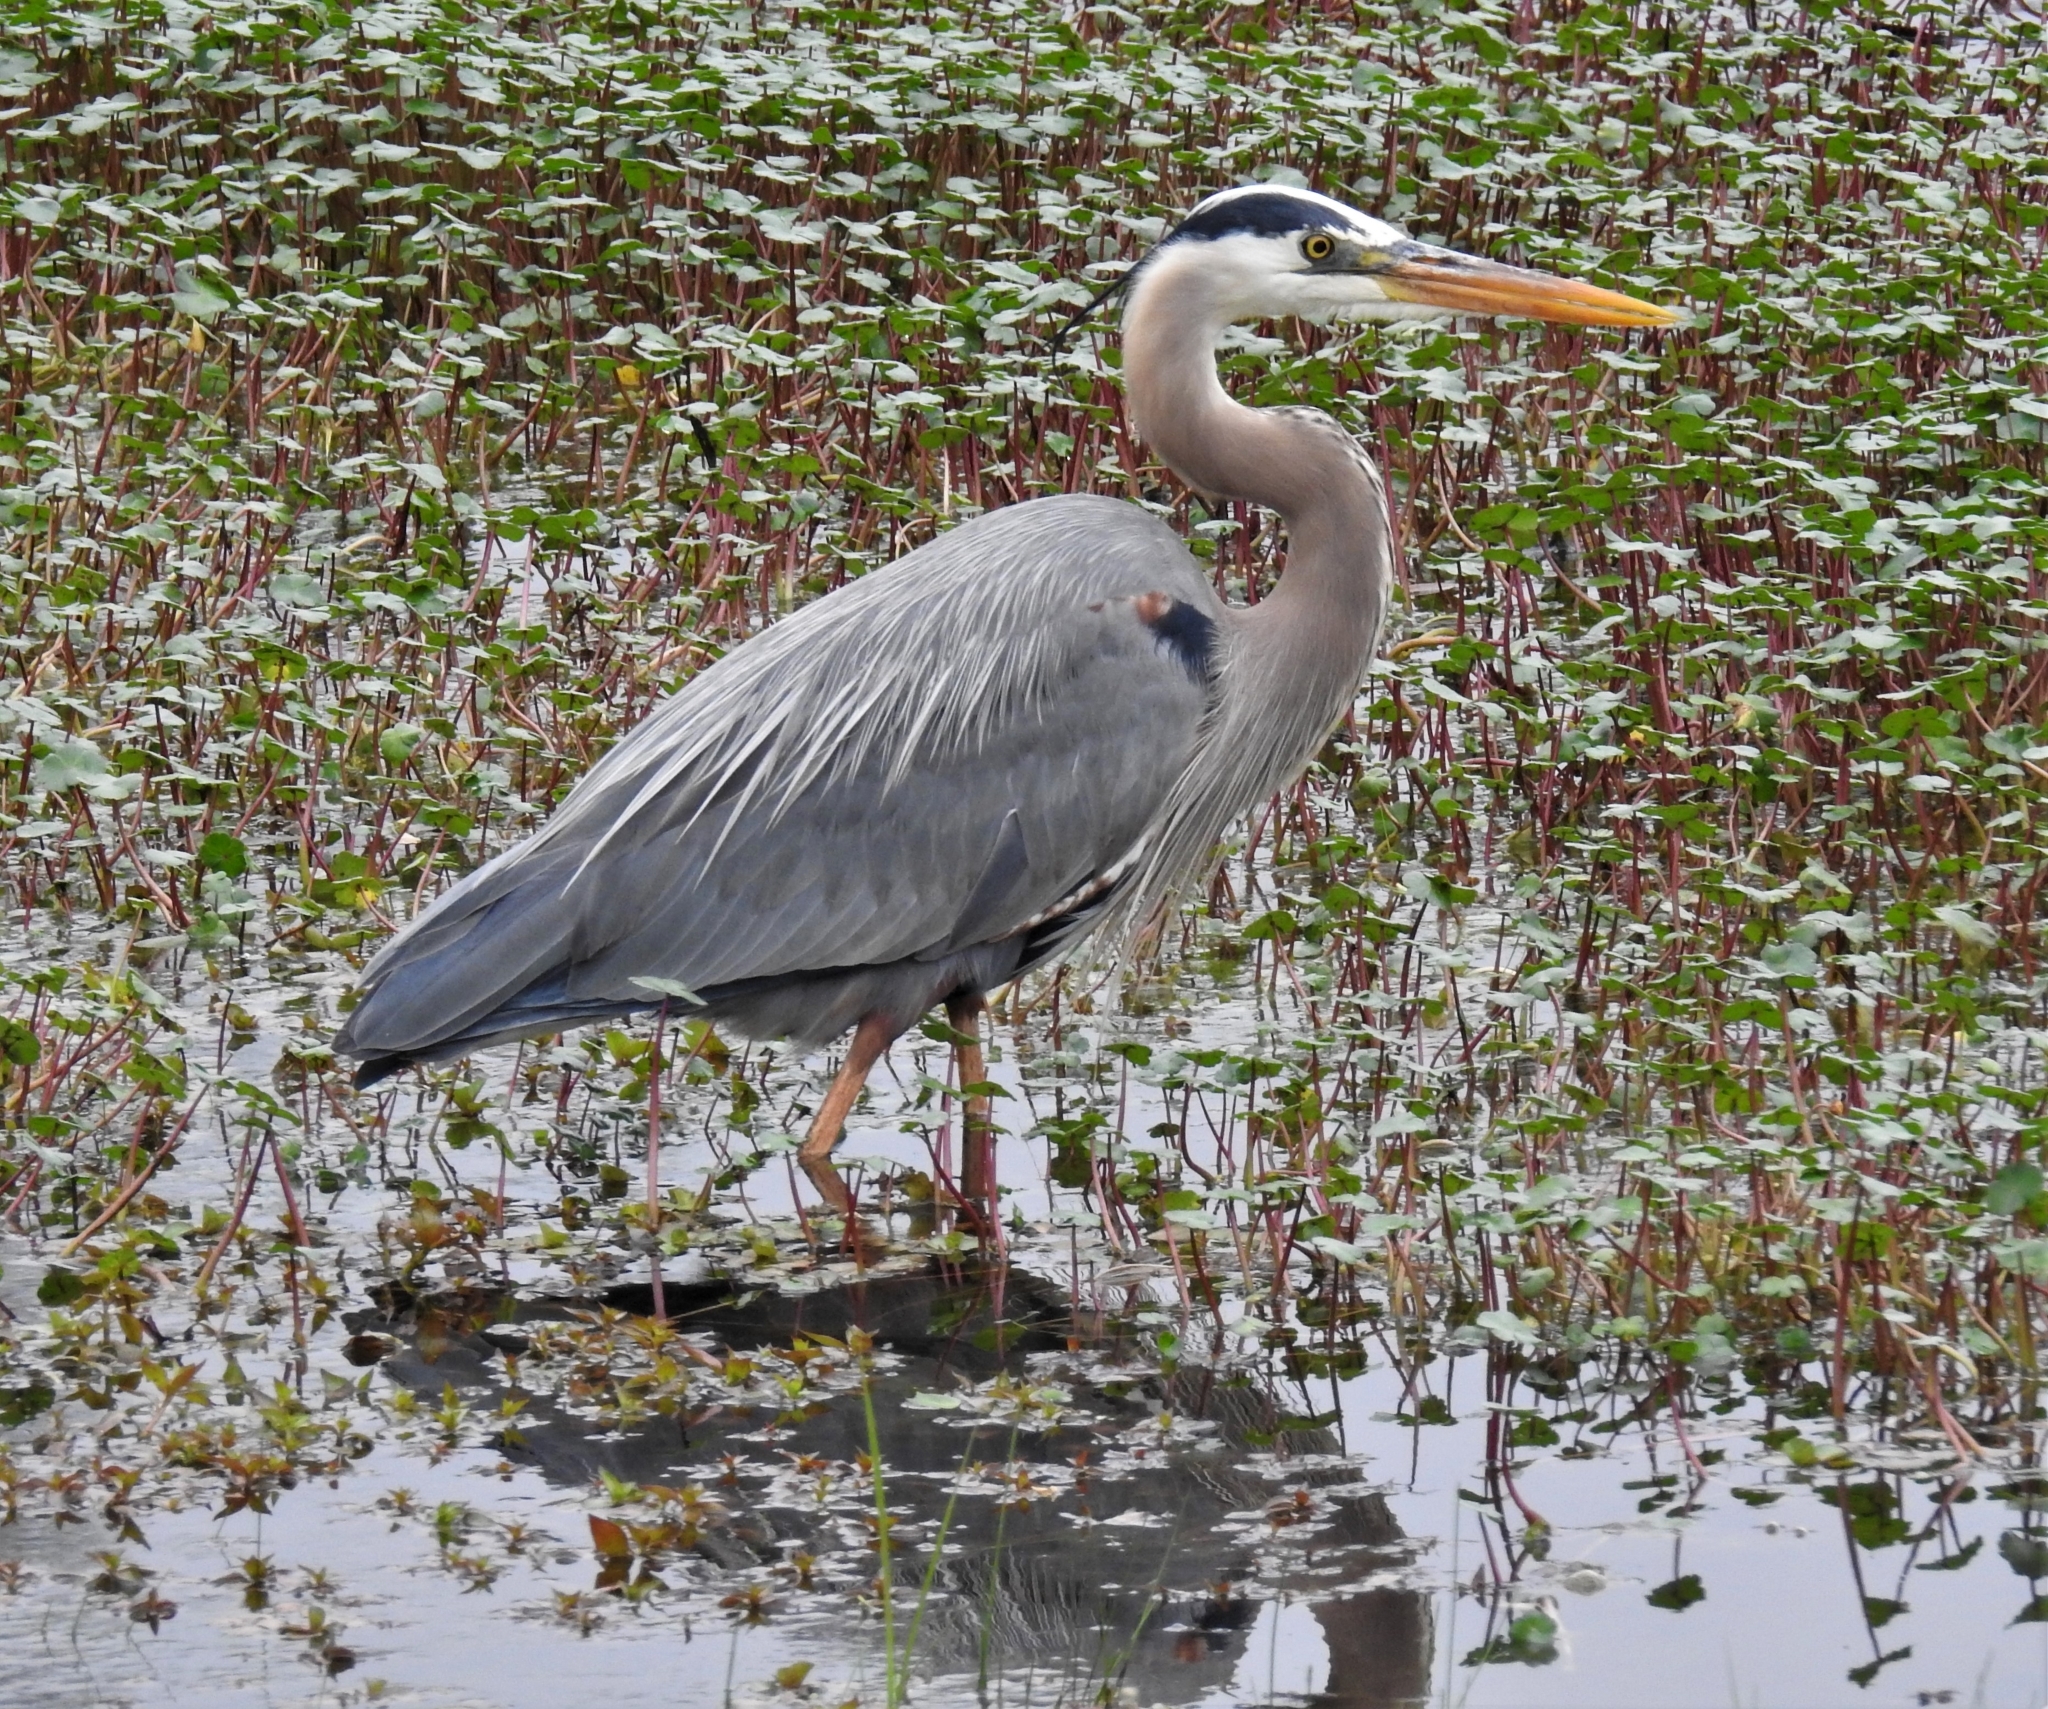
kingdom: Animalia
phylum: Chordata
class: Aves
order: Pelecaniformes
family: Ardeidae
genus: Ardea
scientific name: Ardea herodias
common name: Great blue heron
